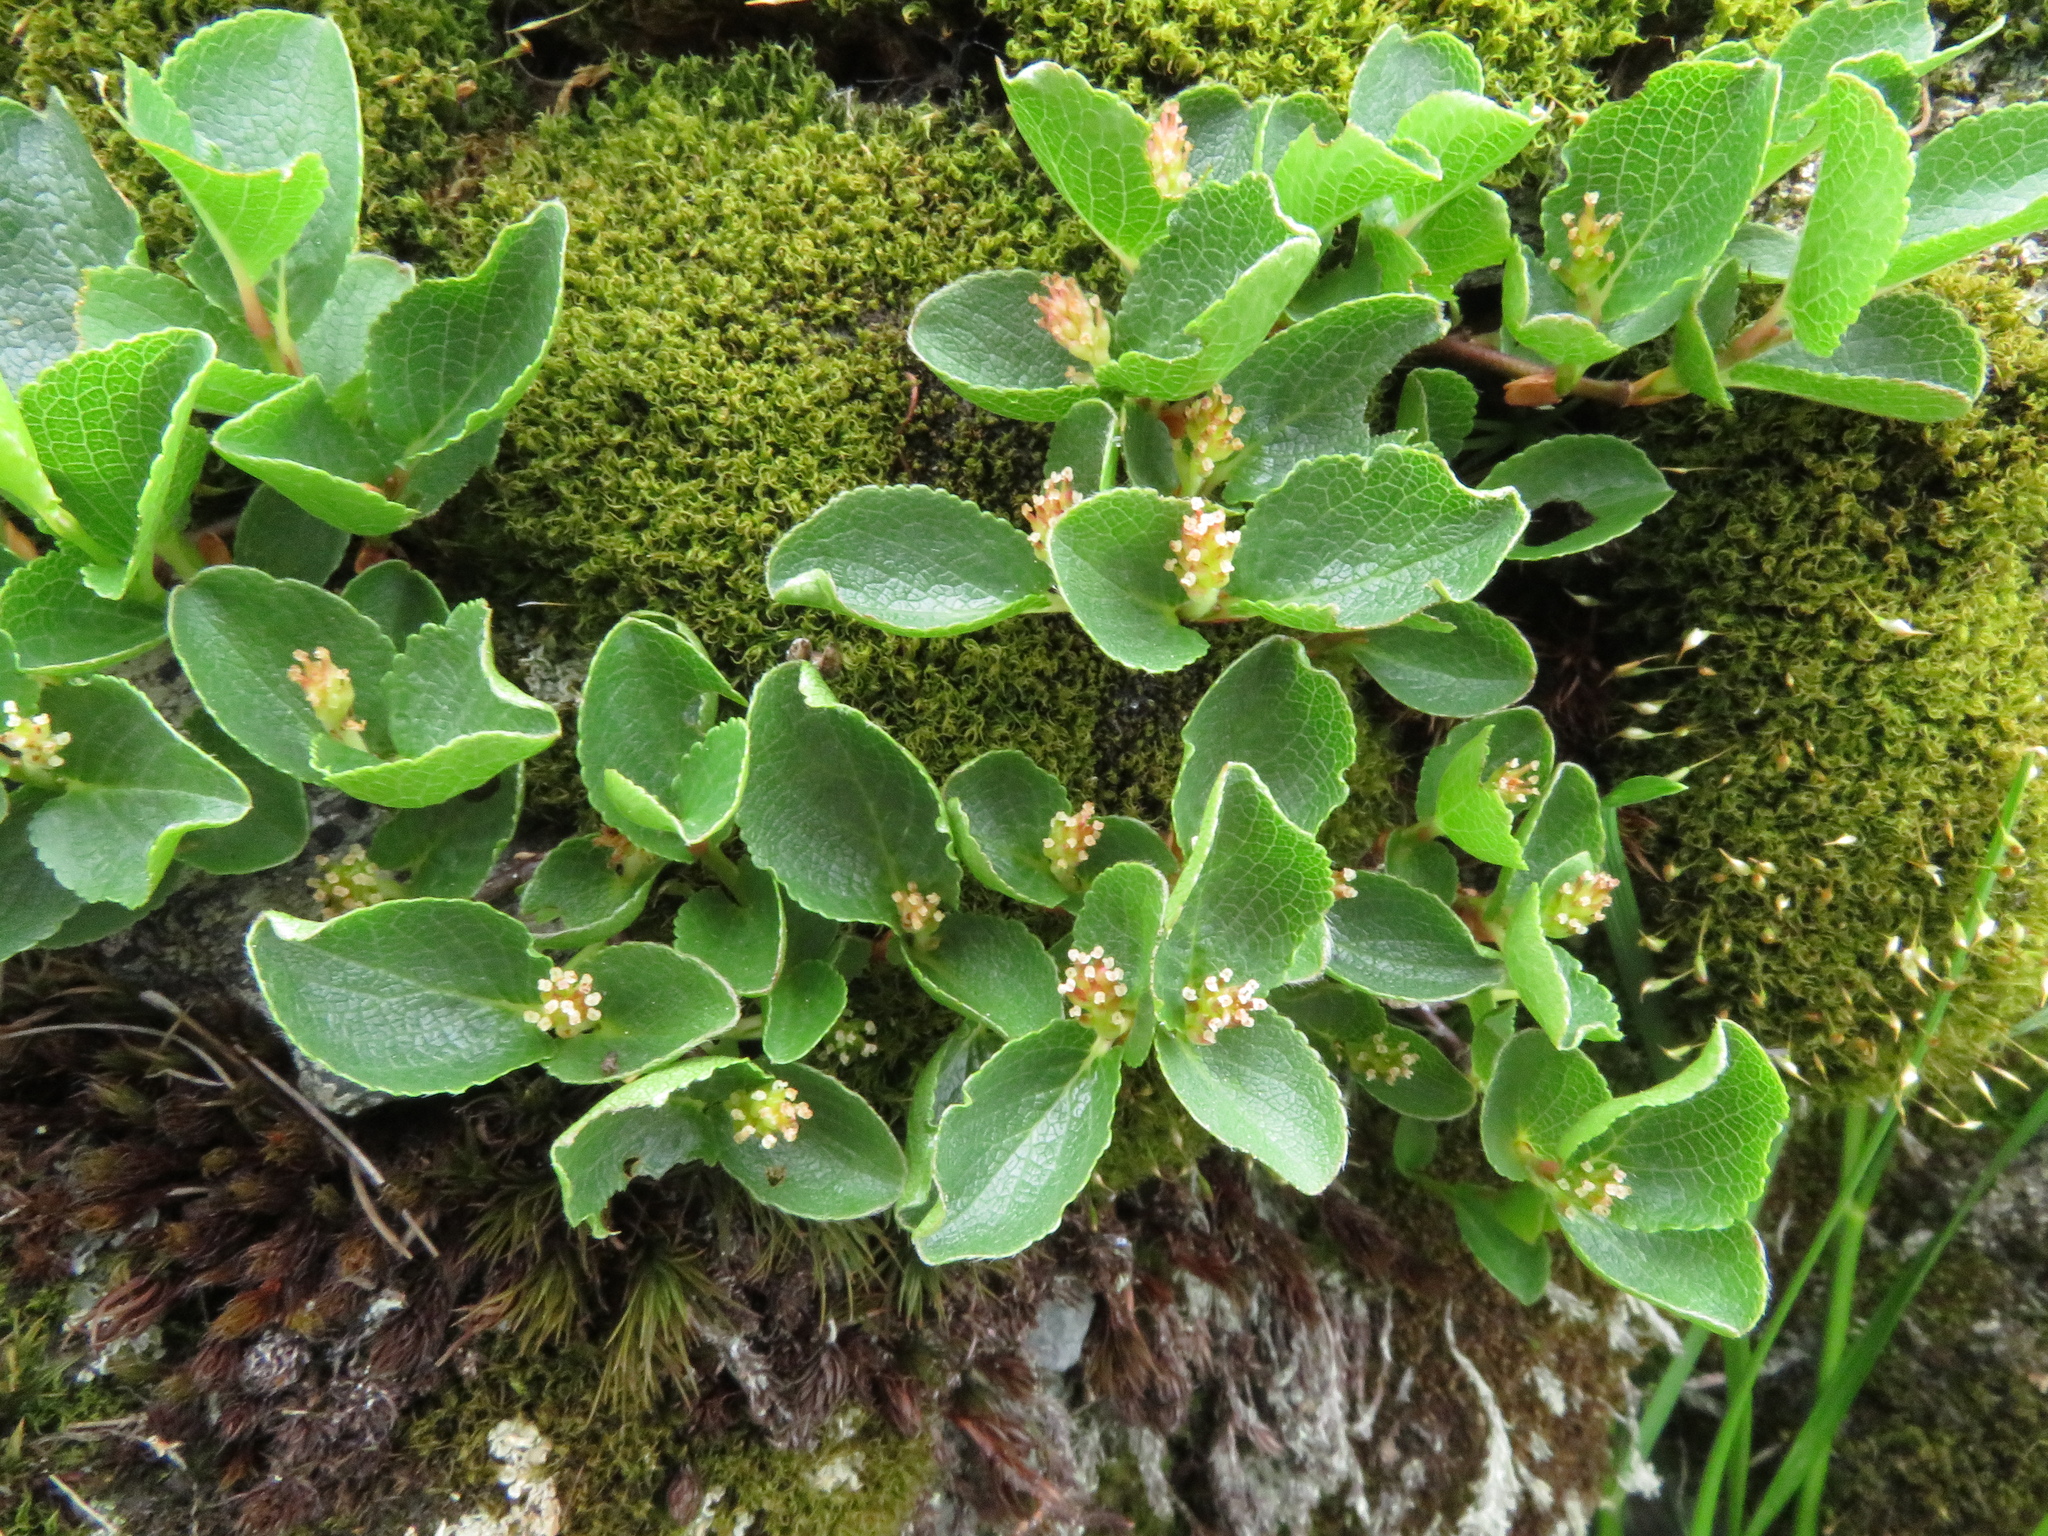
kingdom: Plantae
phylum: Tracheophyta
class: Magnoliopsida
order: Malpighiales
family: Salicaceae
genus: Salix
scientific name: Salix herbacea
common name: Dwarf willow
